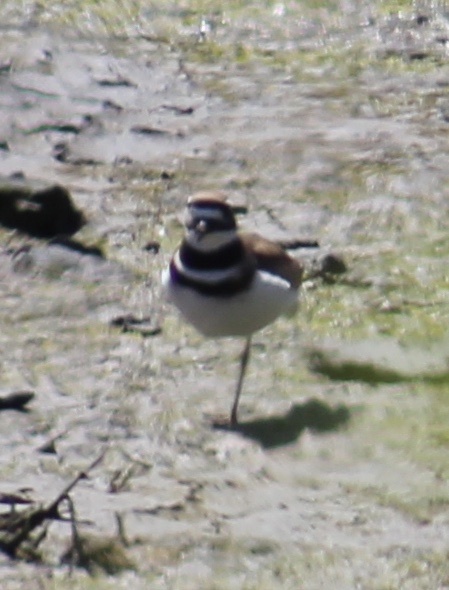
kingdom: Animalia
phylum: Chordata
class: Aves
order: Charadriiformes
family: Charadriidae
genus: Charadrius
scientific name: Charadrius vociferus
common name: Killdeer
